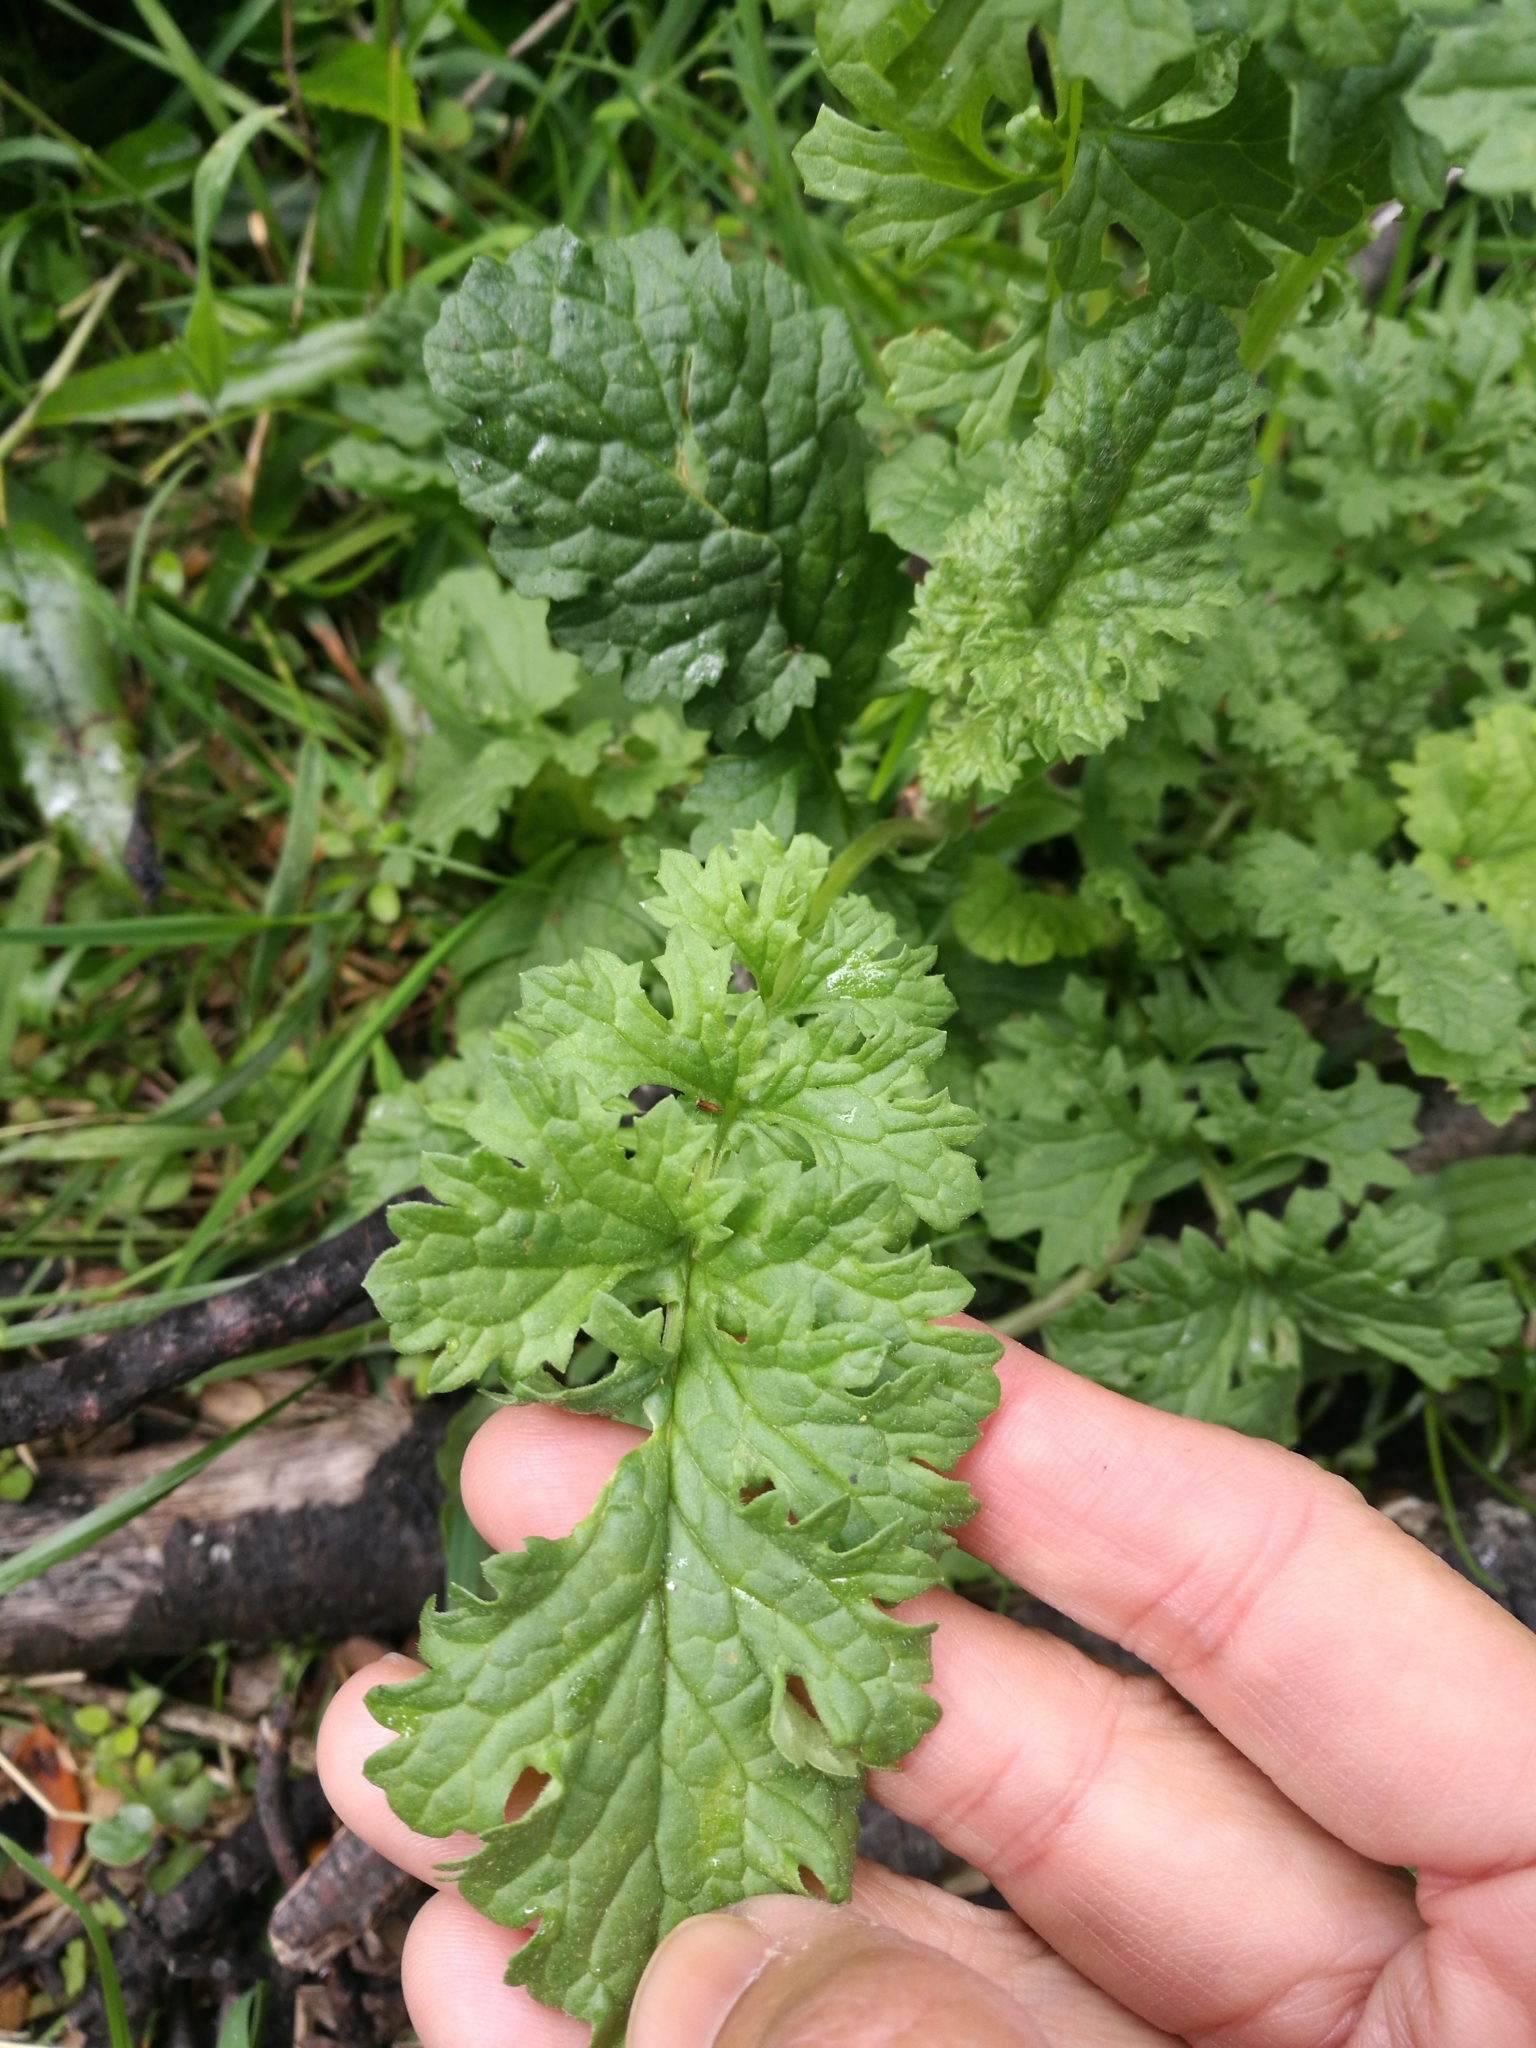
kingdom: Plantae
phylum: Tracheophyta
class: Magnoliopsida
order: Asterales
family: Asteraceae
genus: Jacobaea
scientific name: Jacobaea vulgaris
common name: Stinking willie
